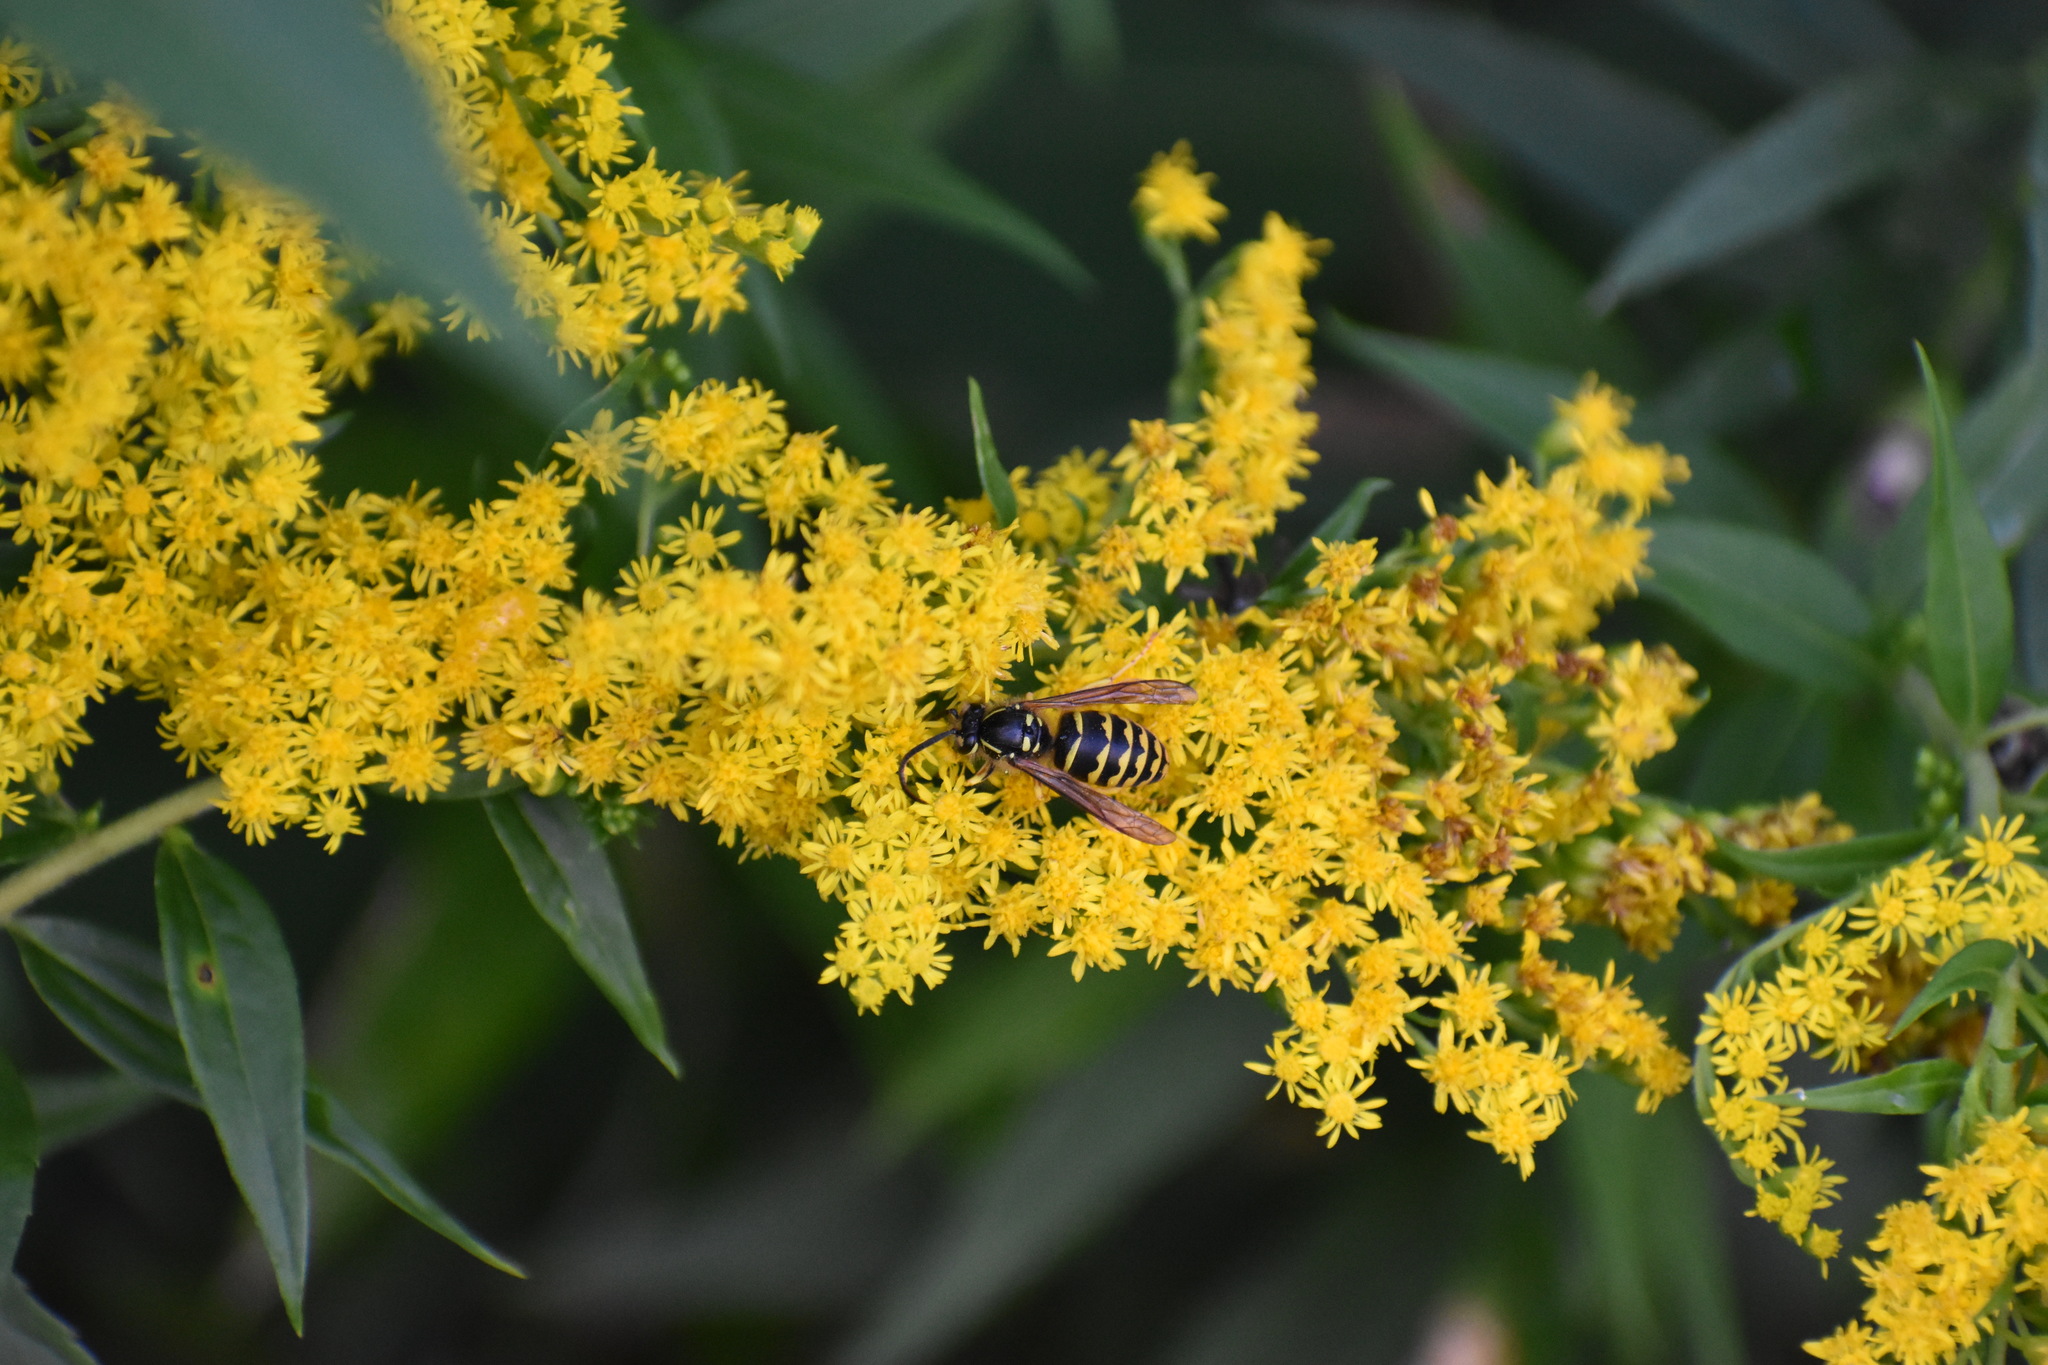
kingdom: Animalia
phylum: Arthropoda
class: Insecta
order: Hymenoptera
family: Vespidae
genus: Dolichovespula
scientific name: Dolichovespula arenaria
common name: Aerial yellowjacket
